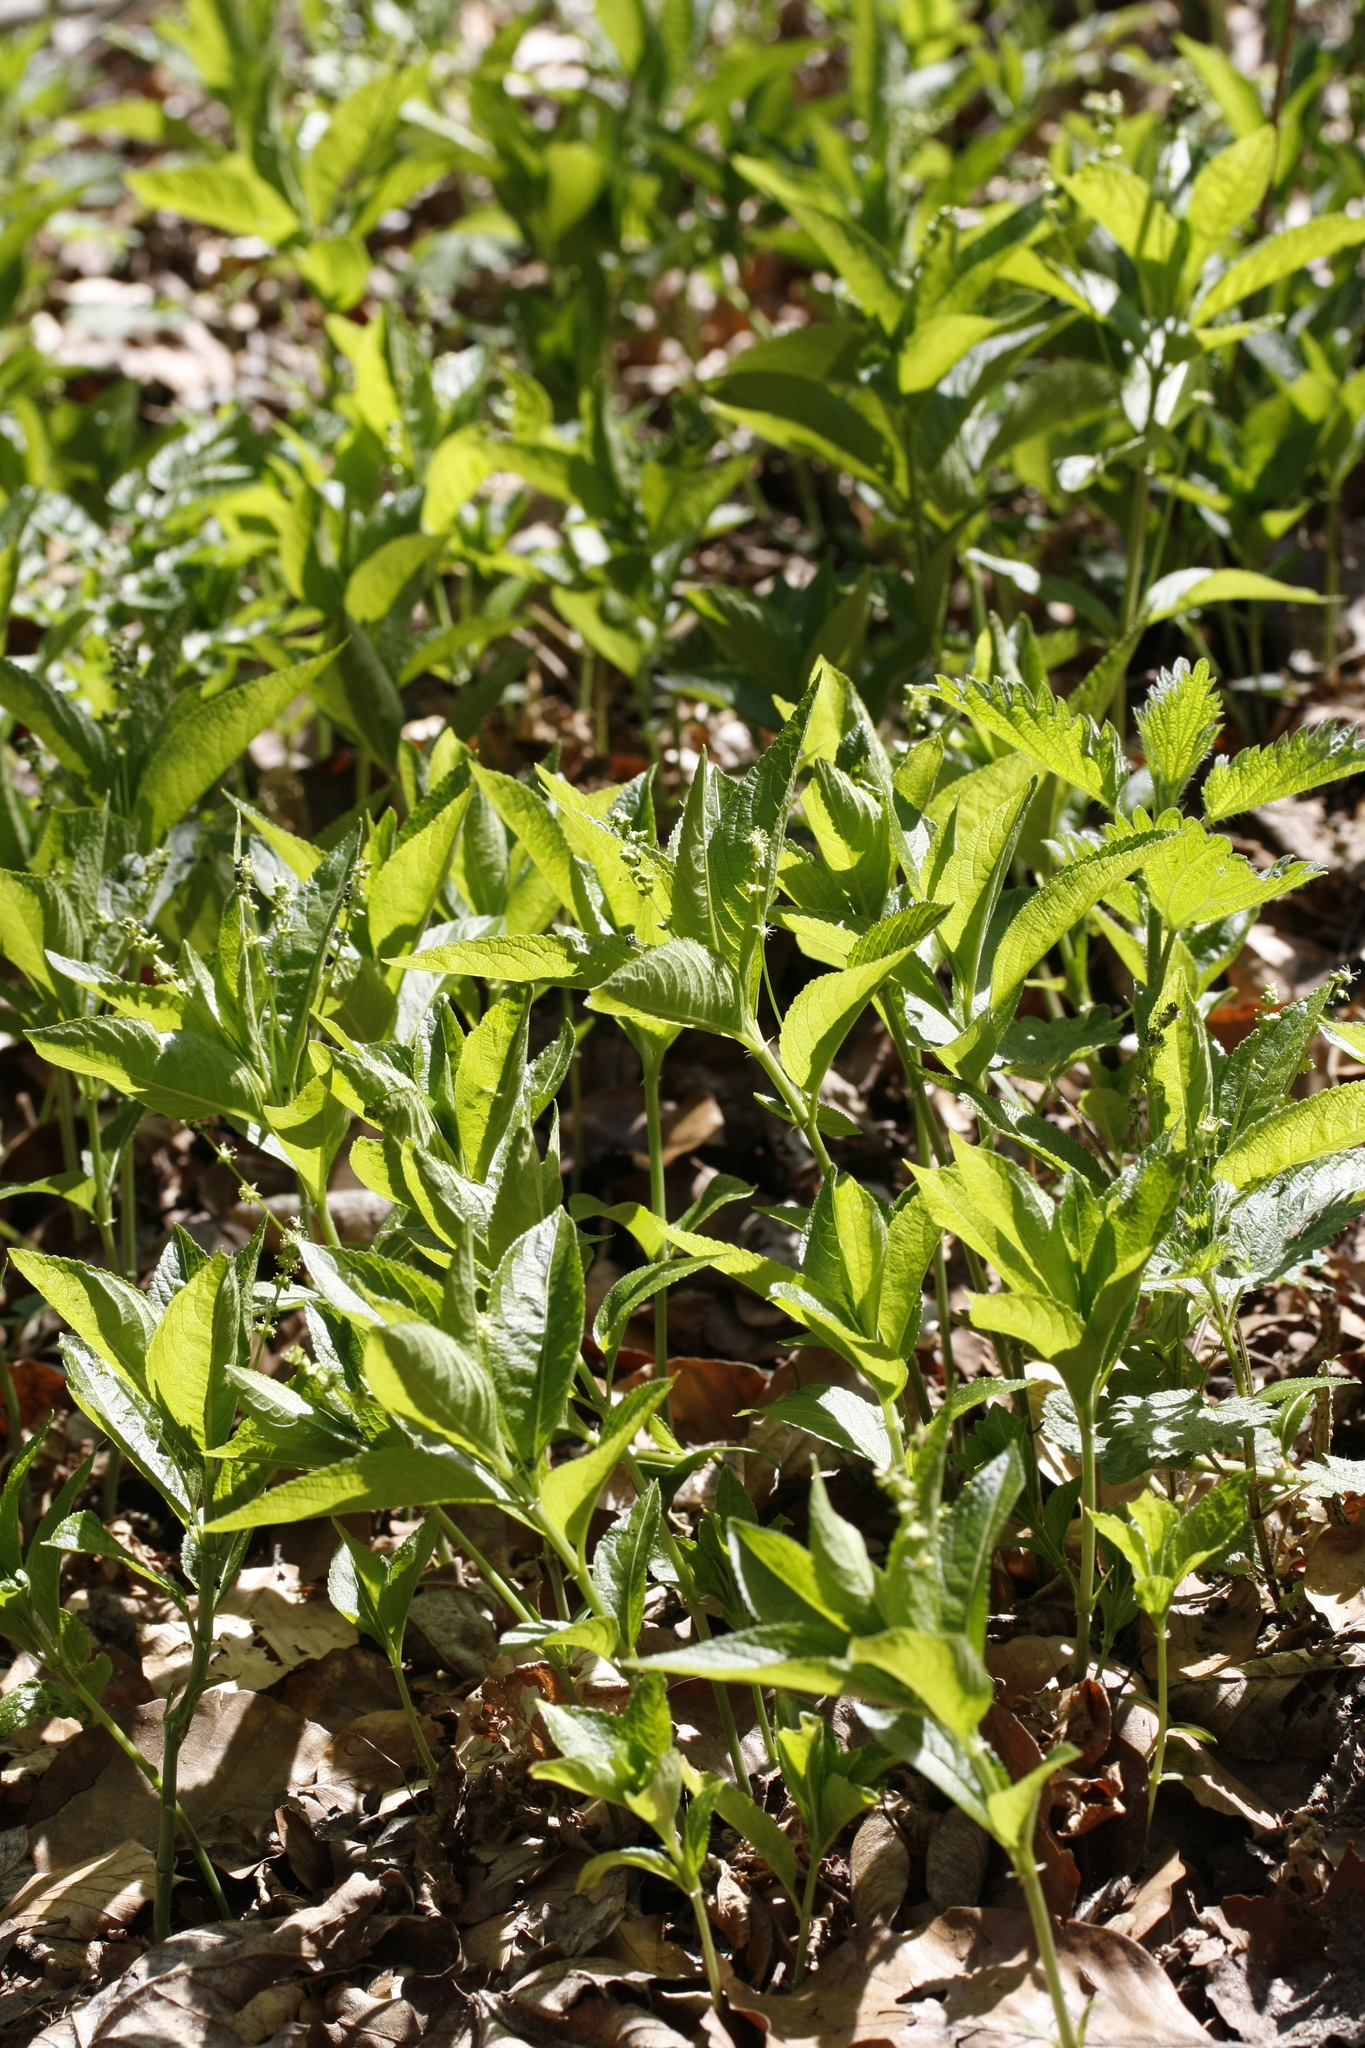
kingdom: Plantae
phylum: Tracheophyta
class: Magnoliopsida
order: Malpighiales
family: Euphorbiaceae
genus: Mercurialis
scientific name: Mercurialis perennis
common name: Dog mercury
